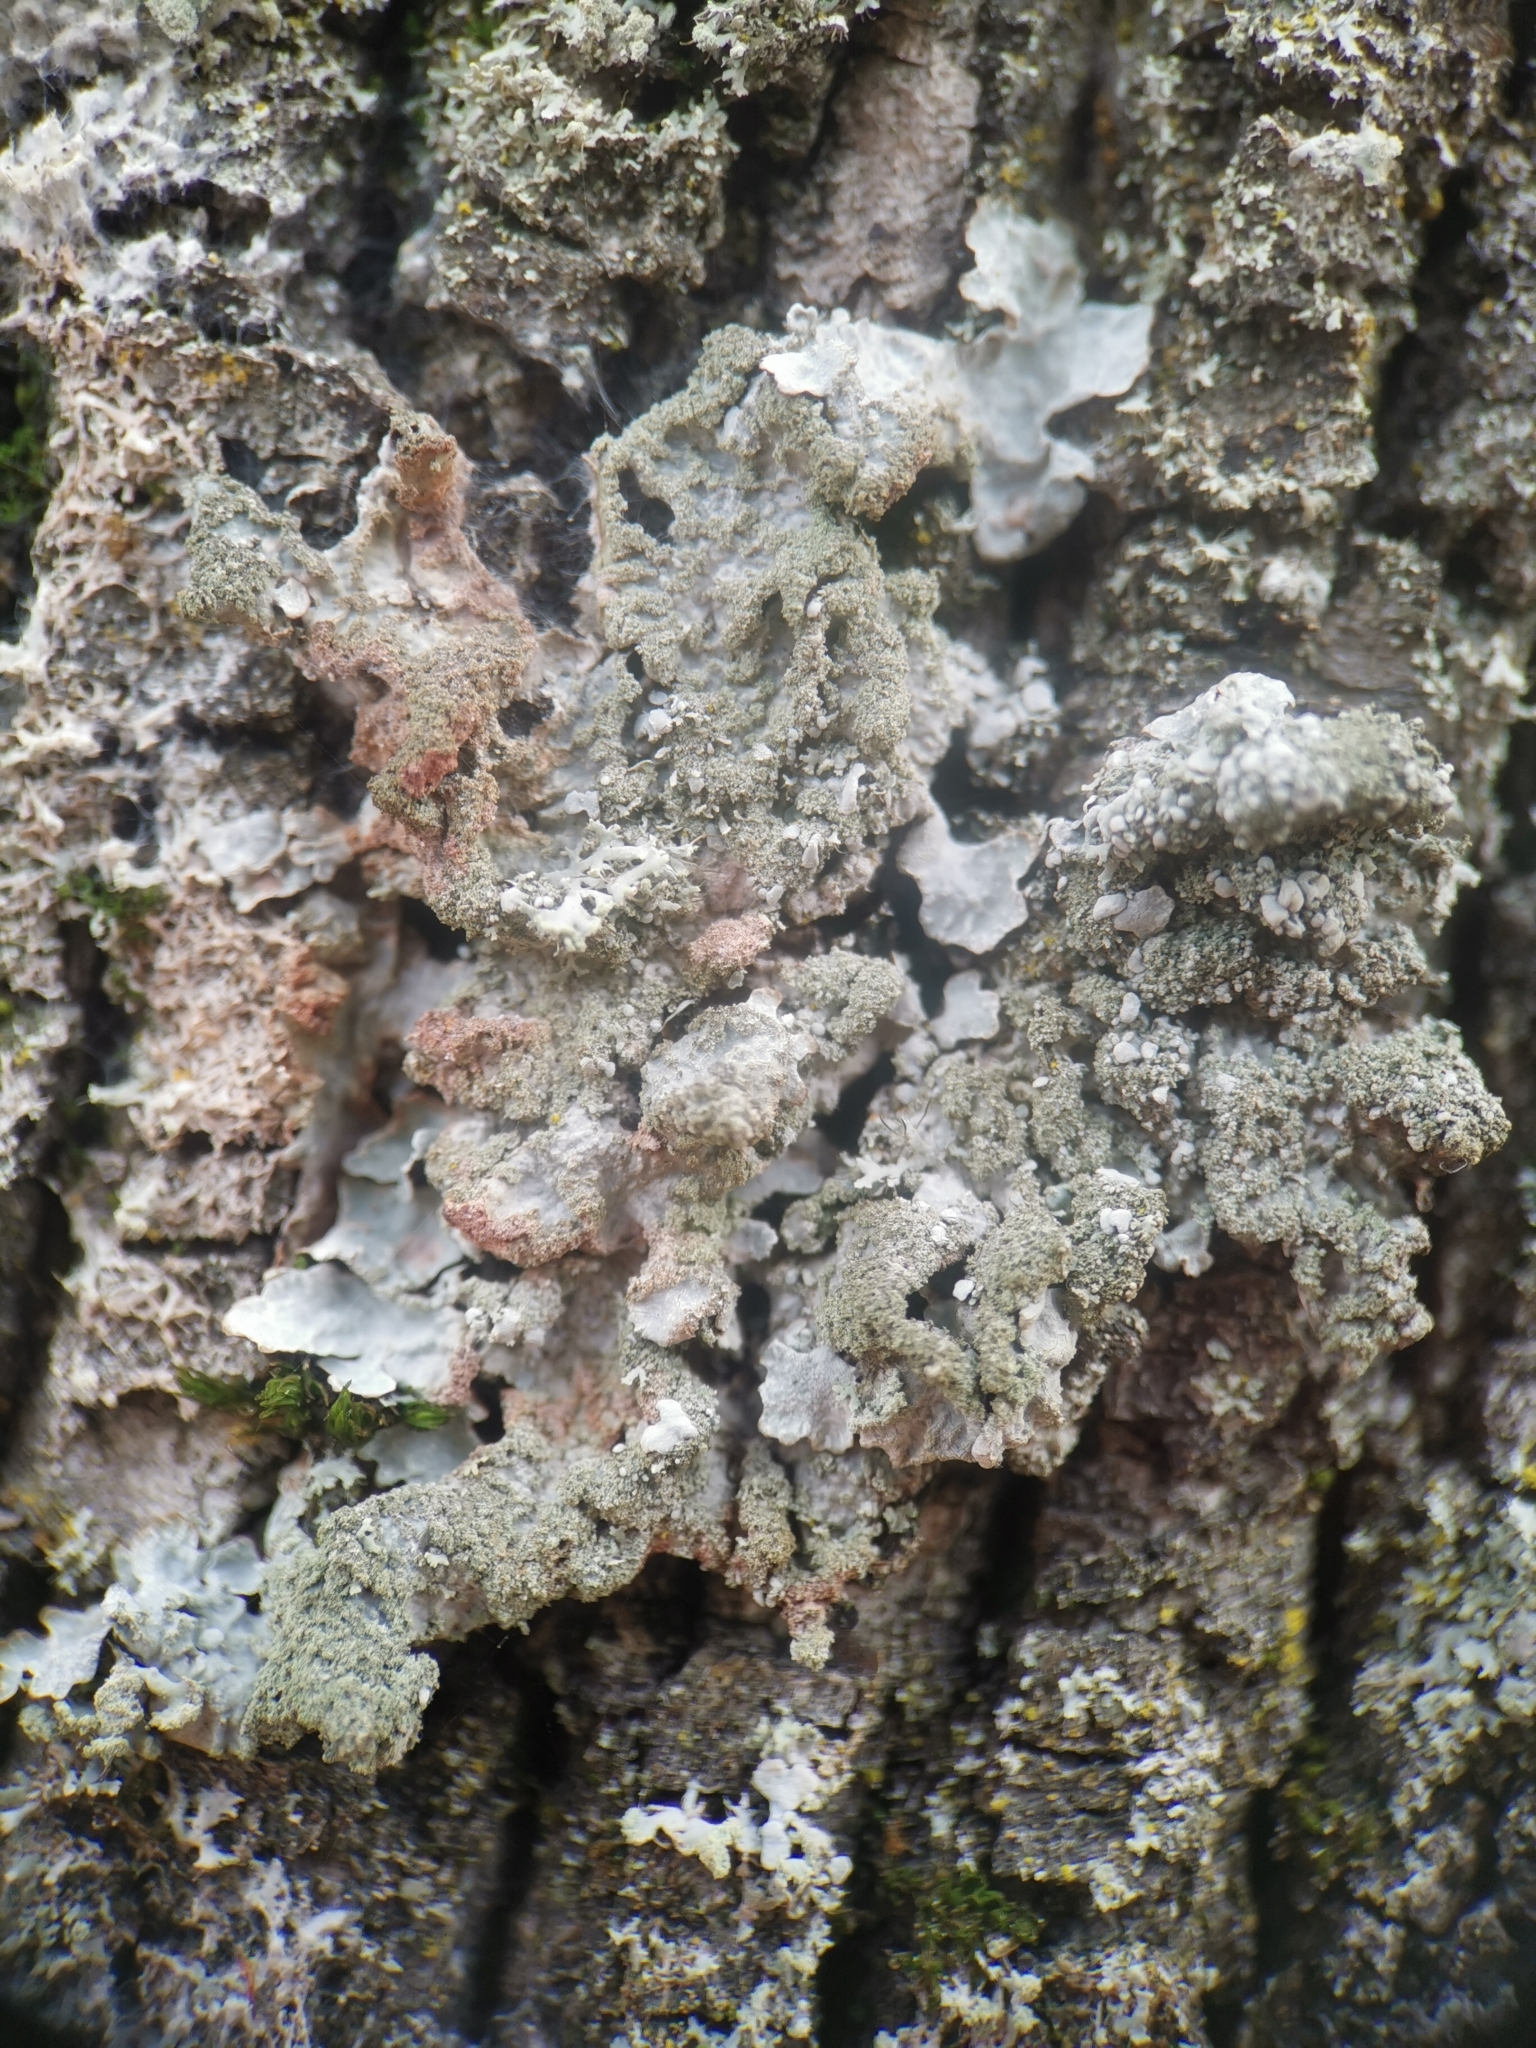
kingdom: Fungi
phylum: Ascomycota
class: Lecanoromycetes
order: Lecanorales
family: Parmeliaceae
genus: Parmelia
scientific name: Parmelia sulcata
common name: Netted shield lichen
